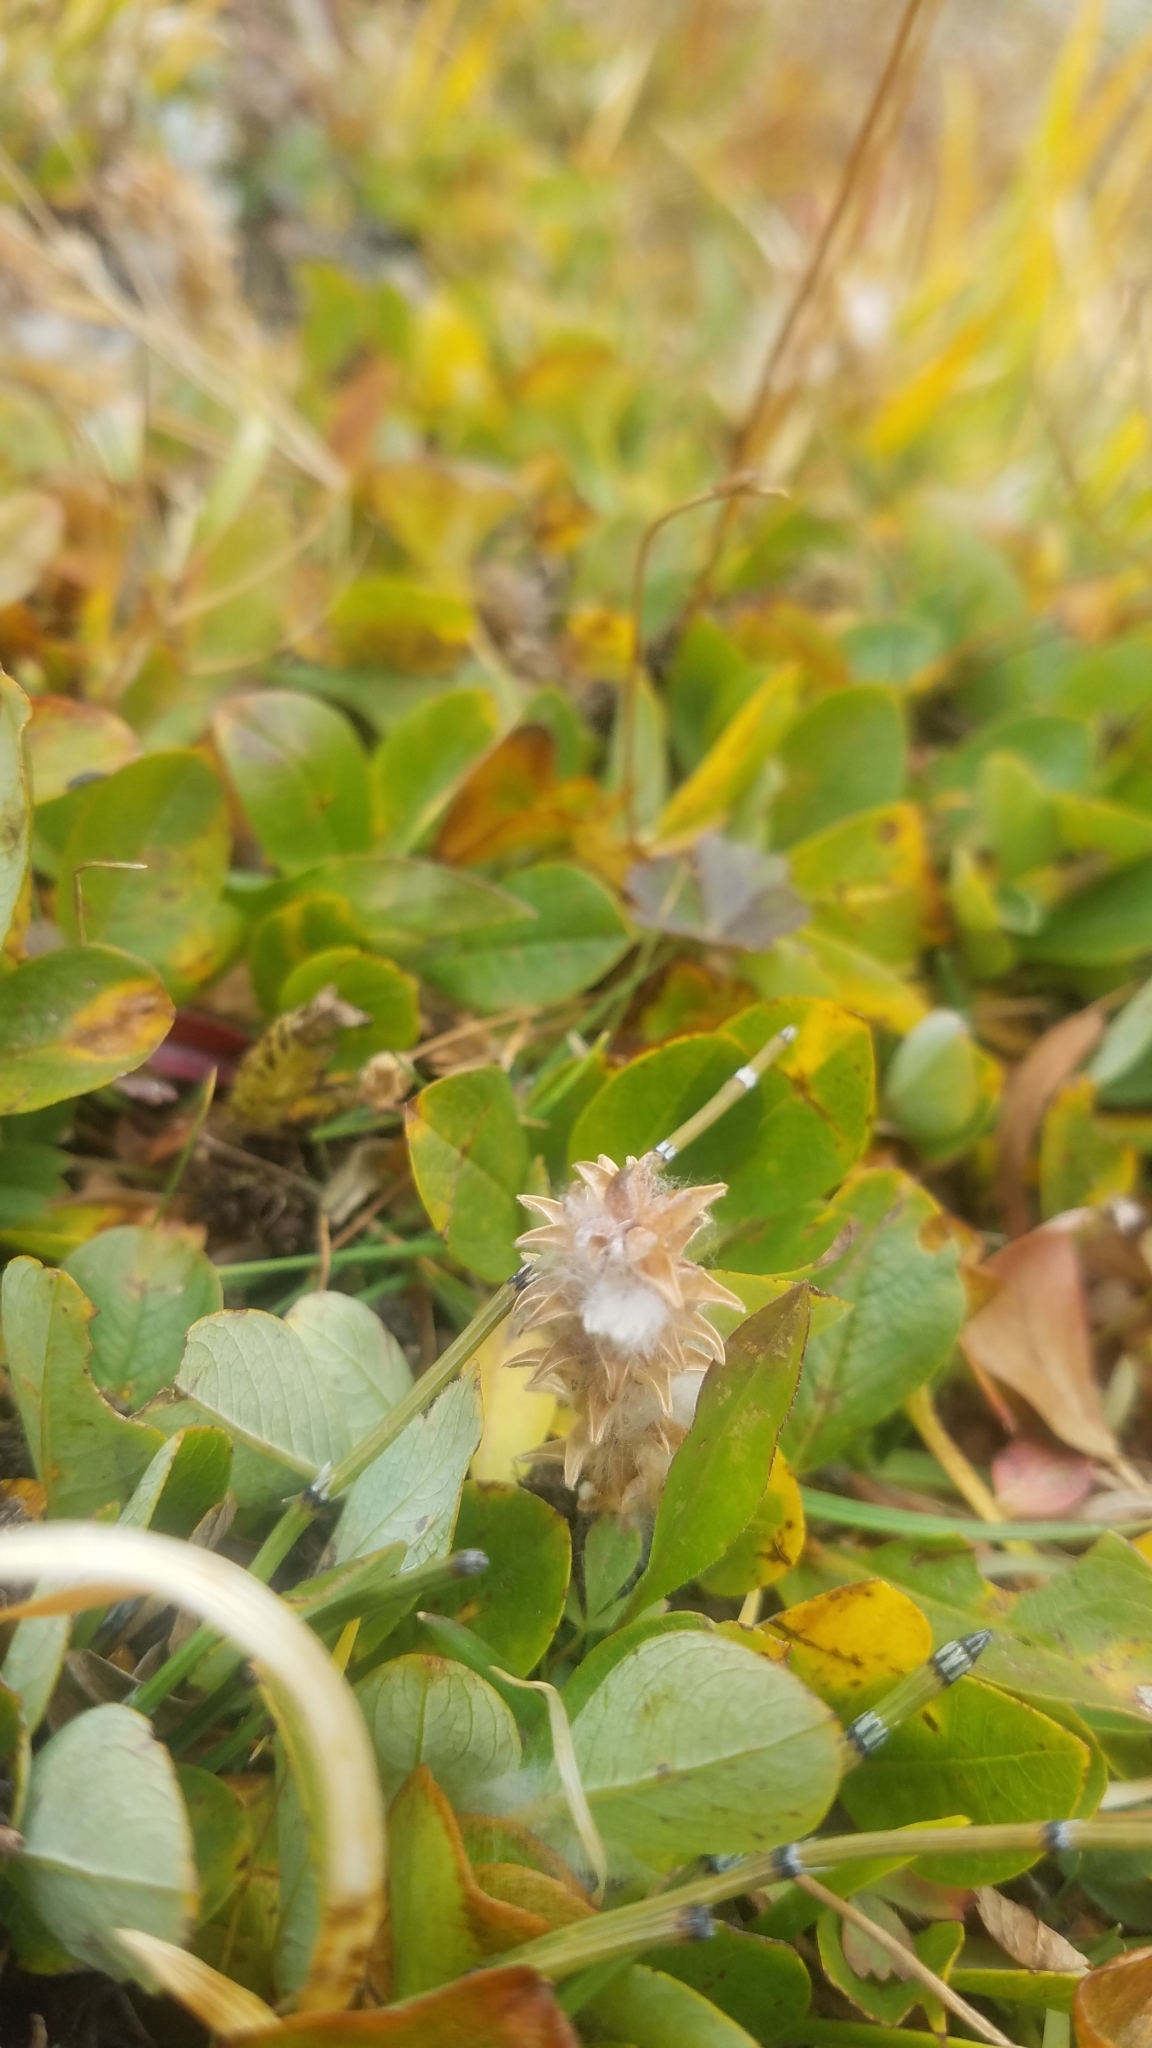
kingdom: Plantae
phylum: Tracheophyta
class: Magnoliopsida
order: Malpighiales
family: Salicaceae
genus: Salix
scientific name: Salix petrophila
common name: Rocky mountain willow
